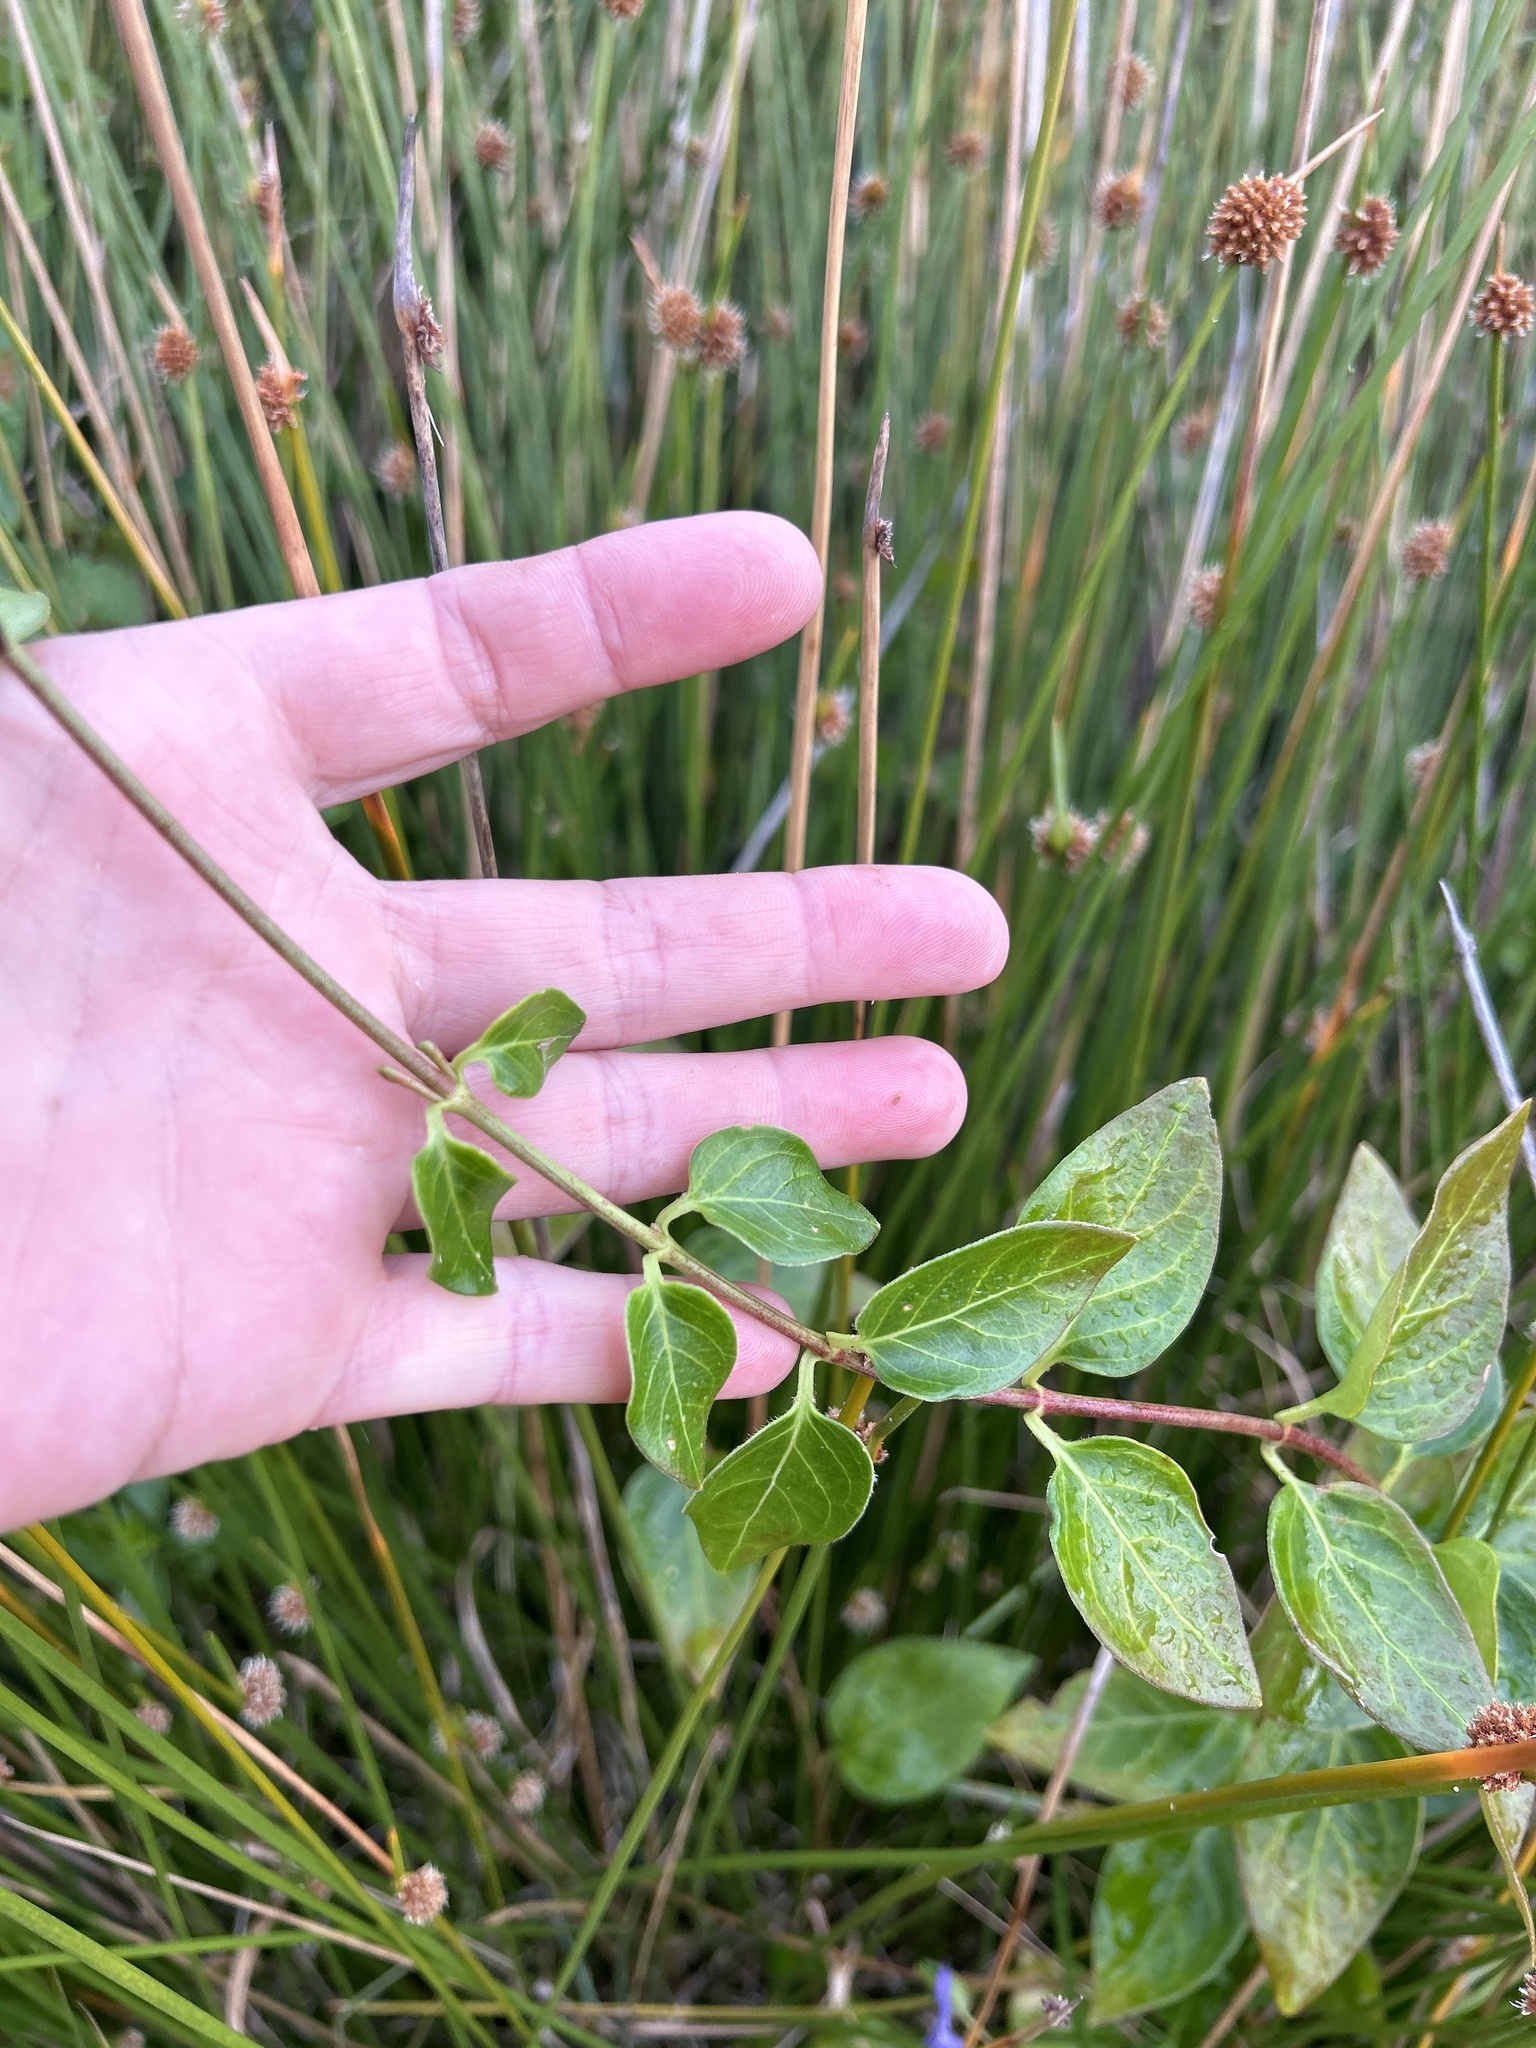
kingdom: Plantae
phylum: Tracheophyta
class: Magnoliopsida
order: Gentianales
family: Apocynaceae
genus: Vinca
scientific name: Vinca major
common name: Greater periwinkle
